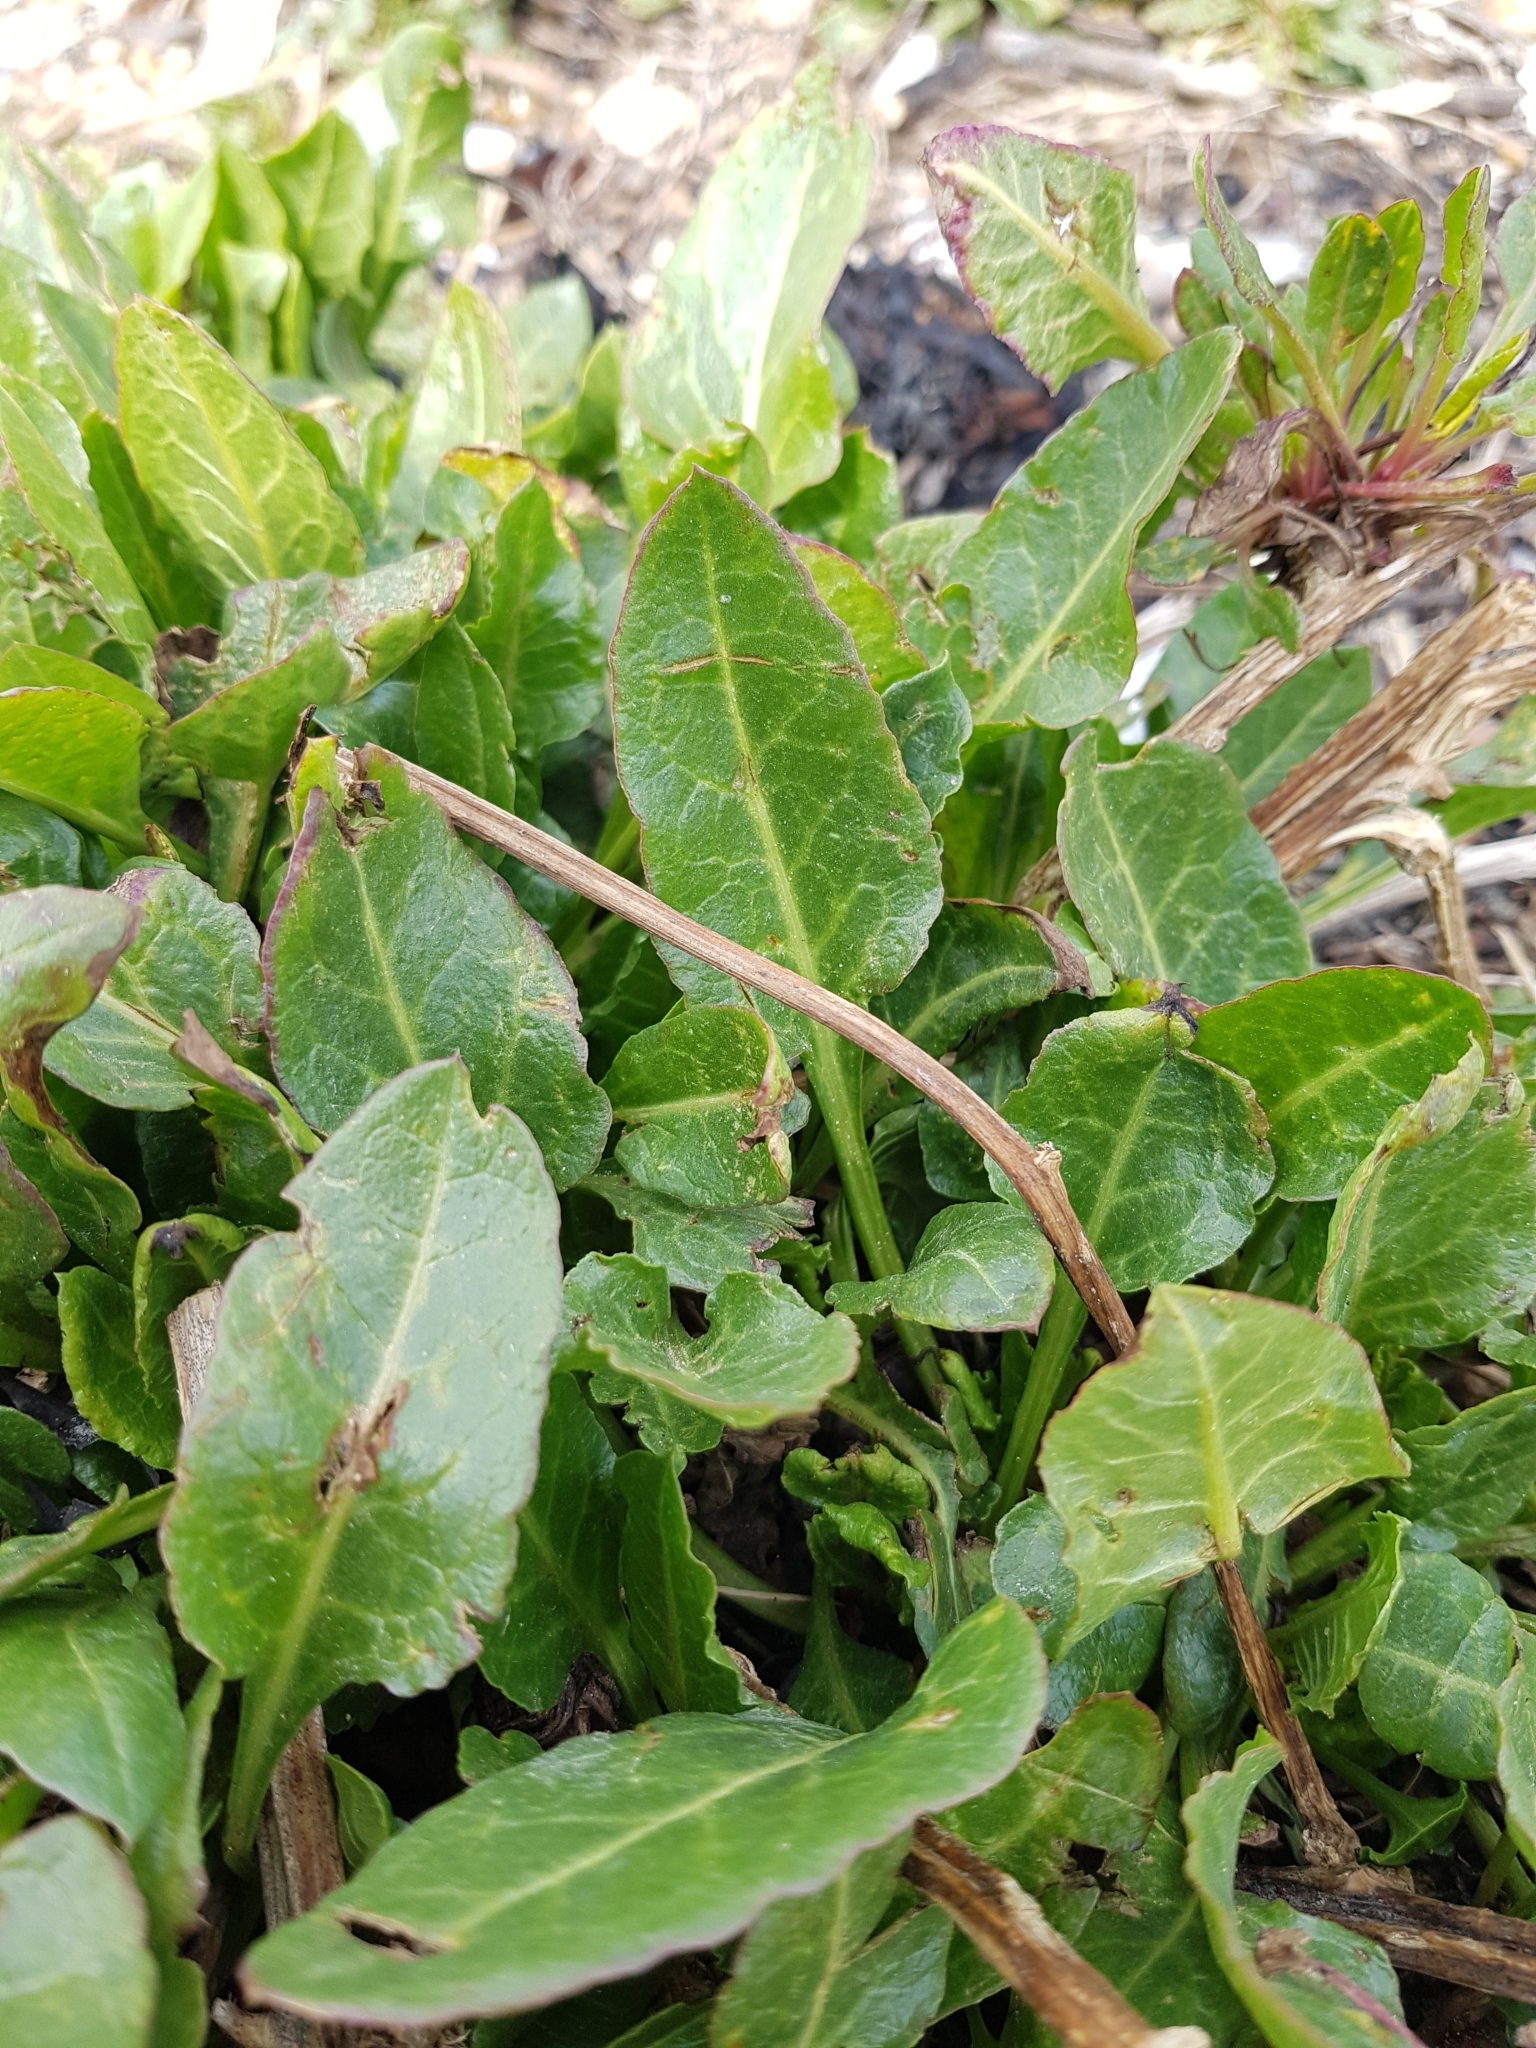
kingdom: Plantae
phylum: Tracheophyta
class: Magnoliopsida
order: Caryophyllales
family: Amaranthaceae
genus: Beta
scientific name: Beta vulgaris
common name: Beet
